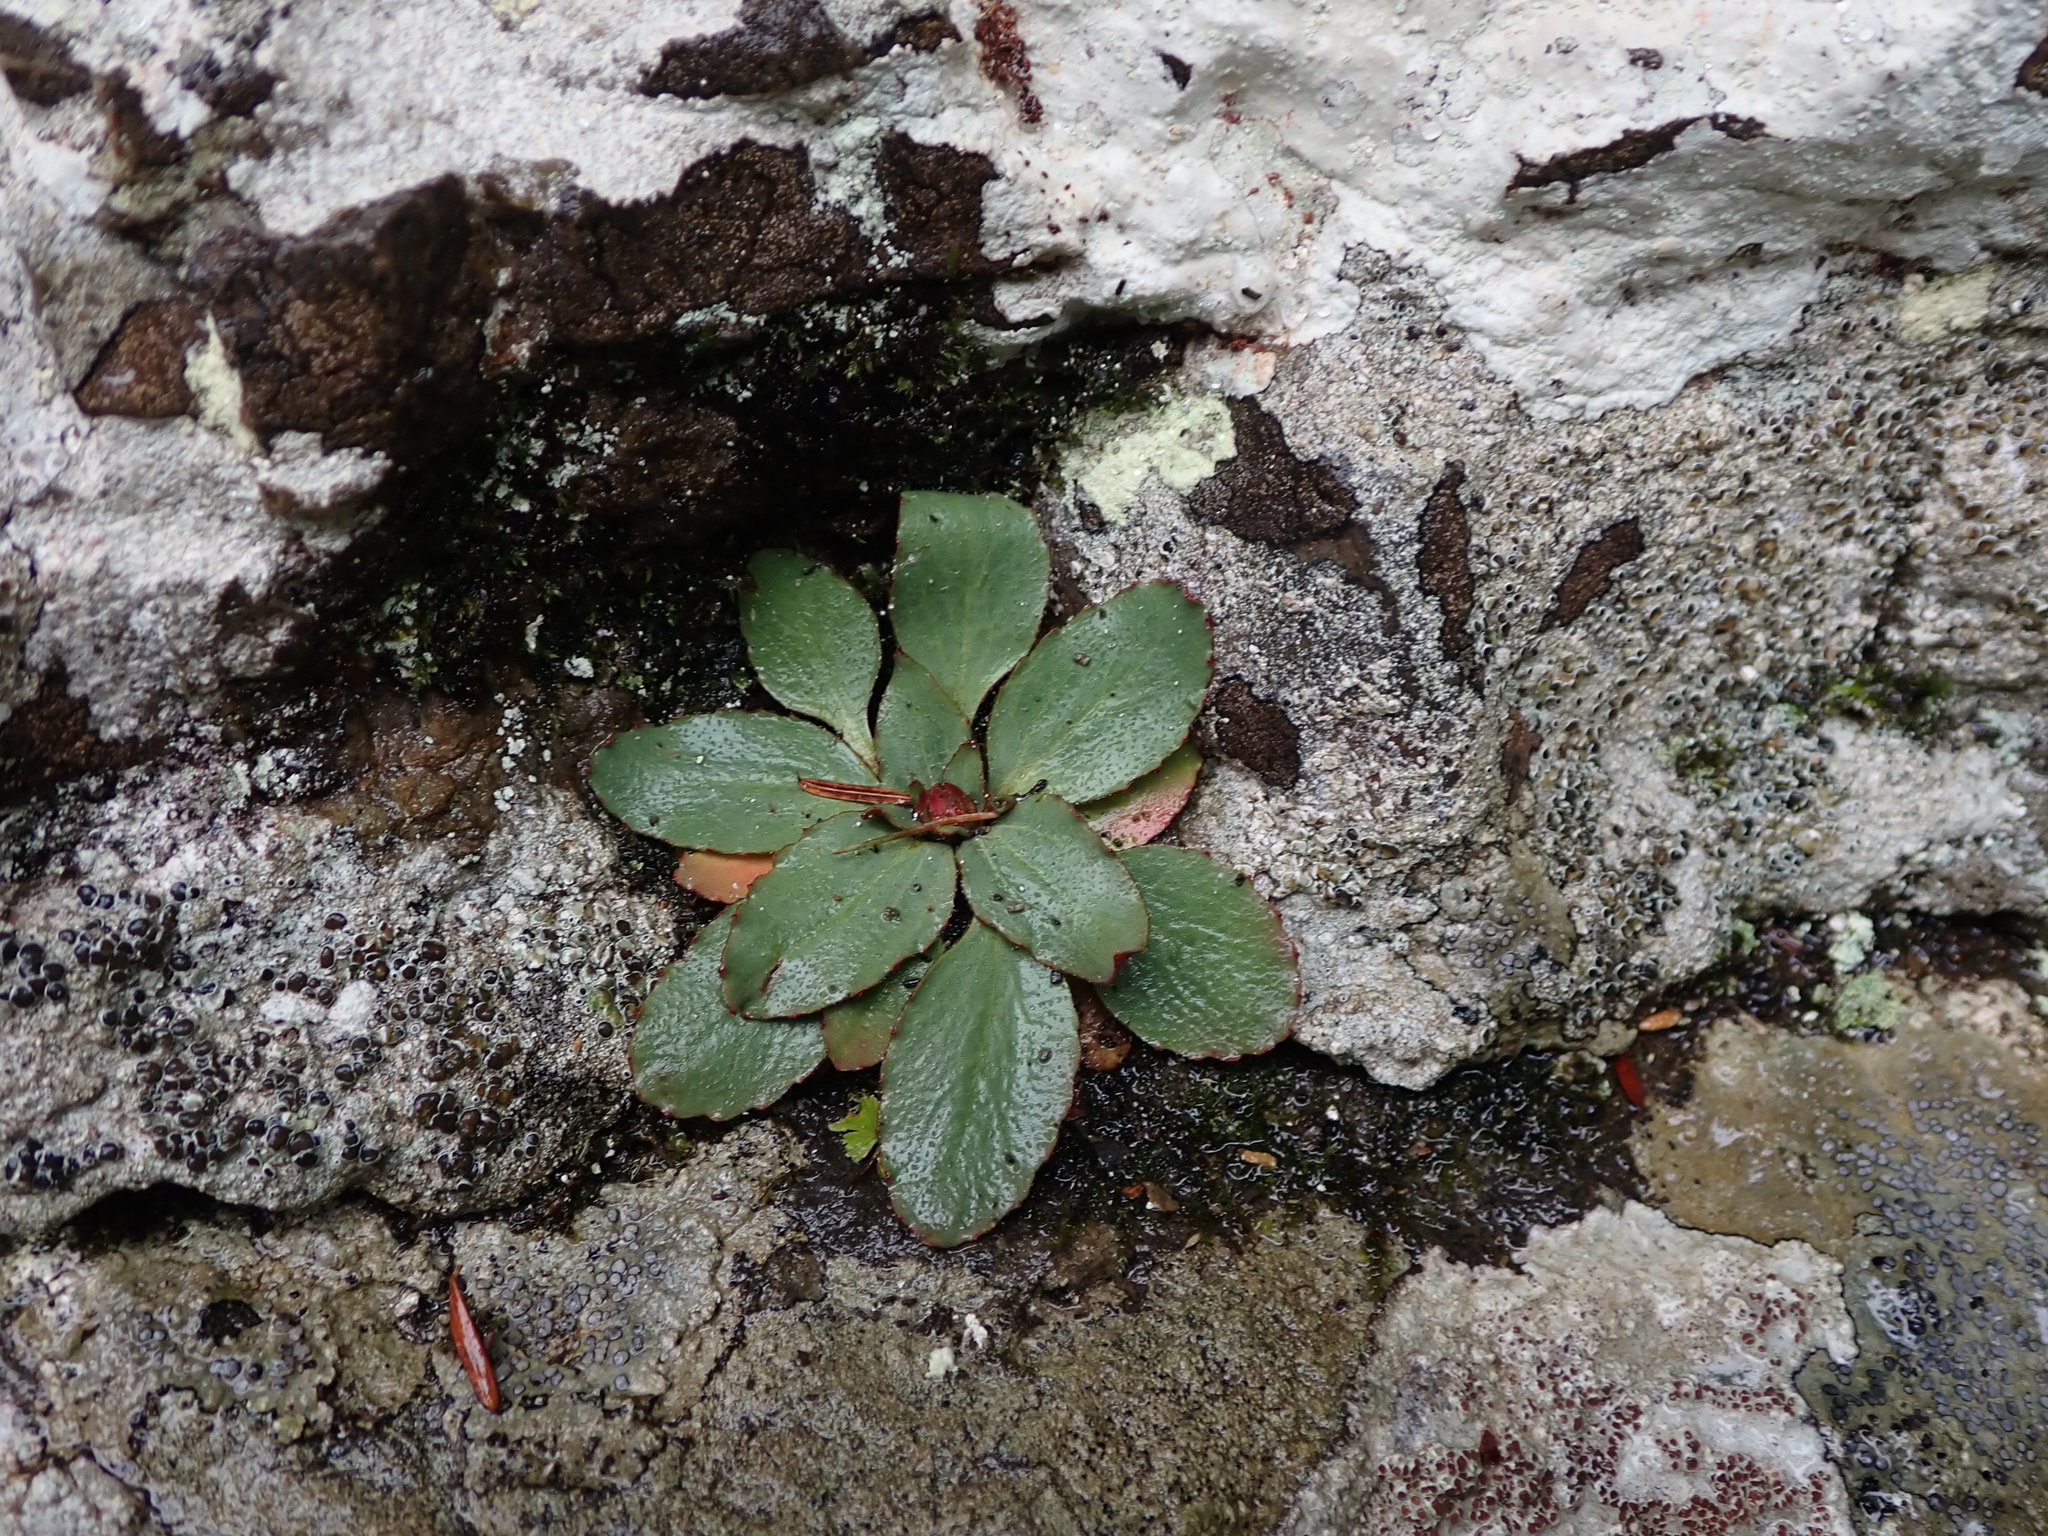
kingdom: Plantae
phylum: Tracheophyta
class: Magnoliopsida
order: Saxifragales
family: Saxifragaceae
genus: Micranthes
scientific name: Micranthes virginiensis
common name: Early saxifrage
